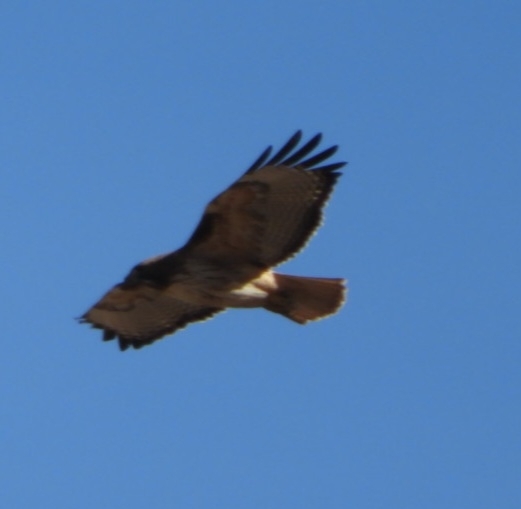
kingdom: Animalia
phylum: Chordata
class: Aves
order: Accipitriformes
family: Accipitridae
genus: Buteo
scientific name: Buteo jamaicensis
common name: Red-tailed hawk
